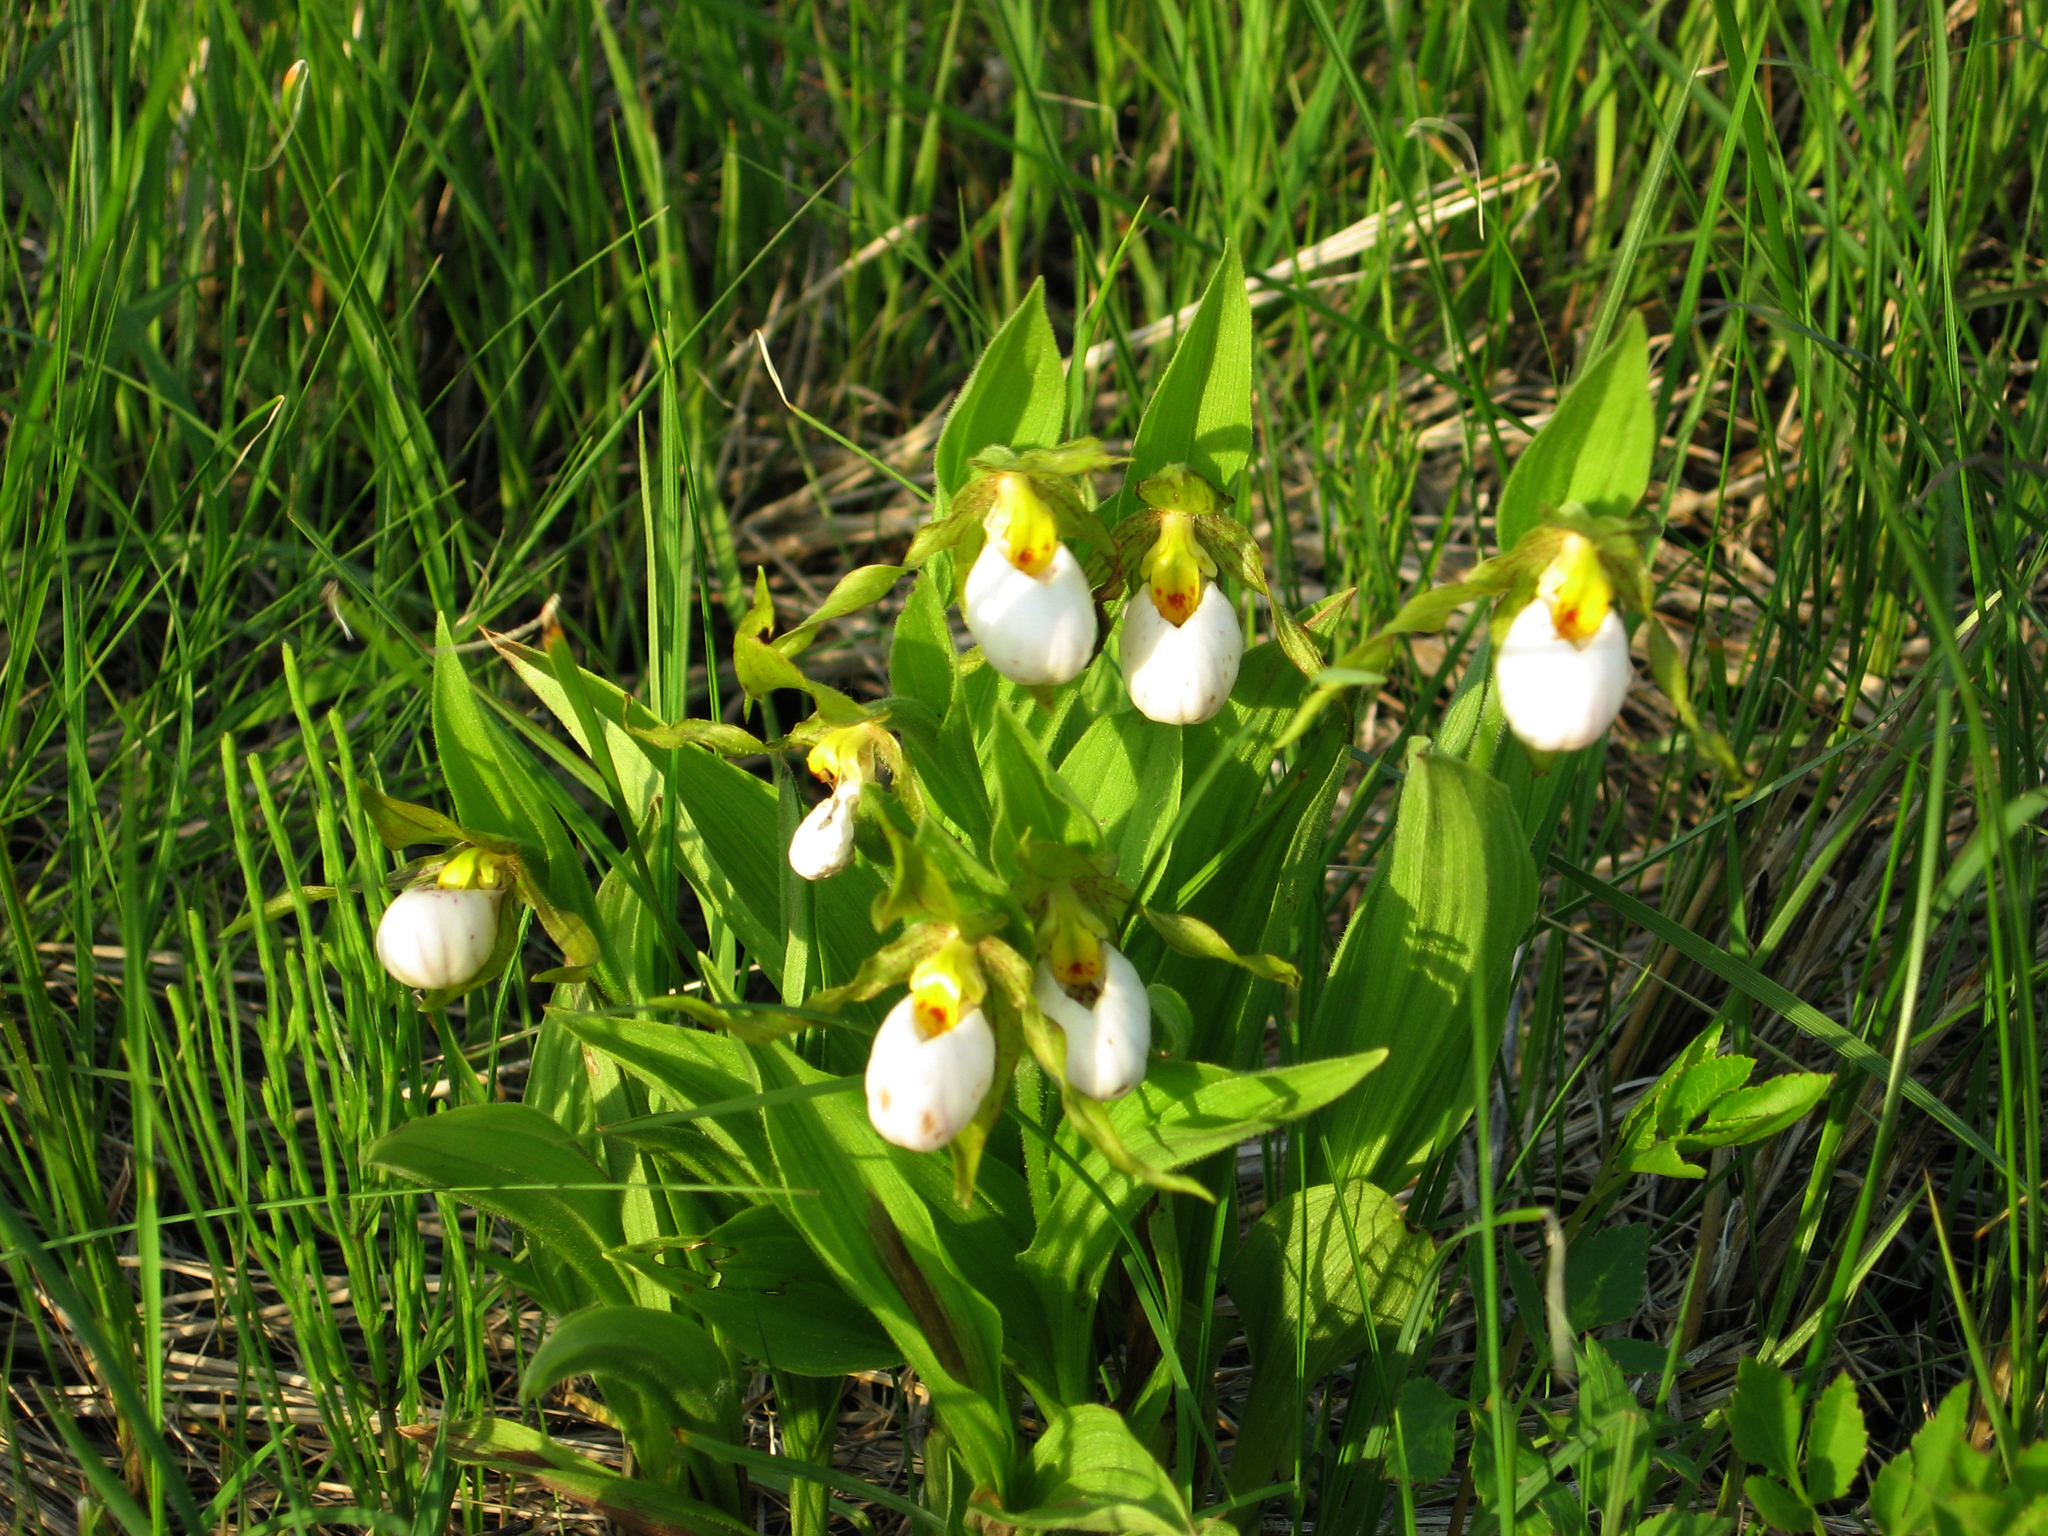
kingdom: Plantae
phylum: Tracheophyta
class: Liliopsida
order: Asparagales
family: Orchidaceae
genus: Cypripedium
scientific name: Cypripedium candidum
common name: White lady's-slipper
